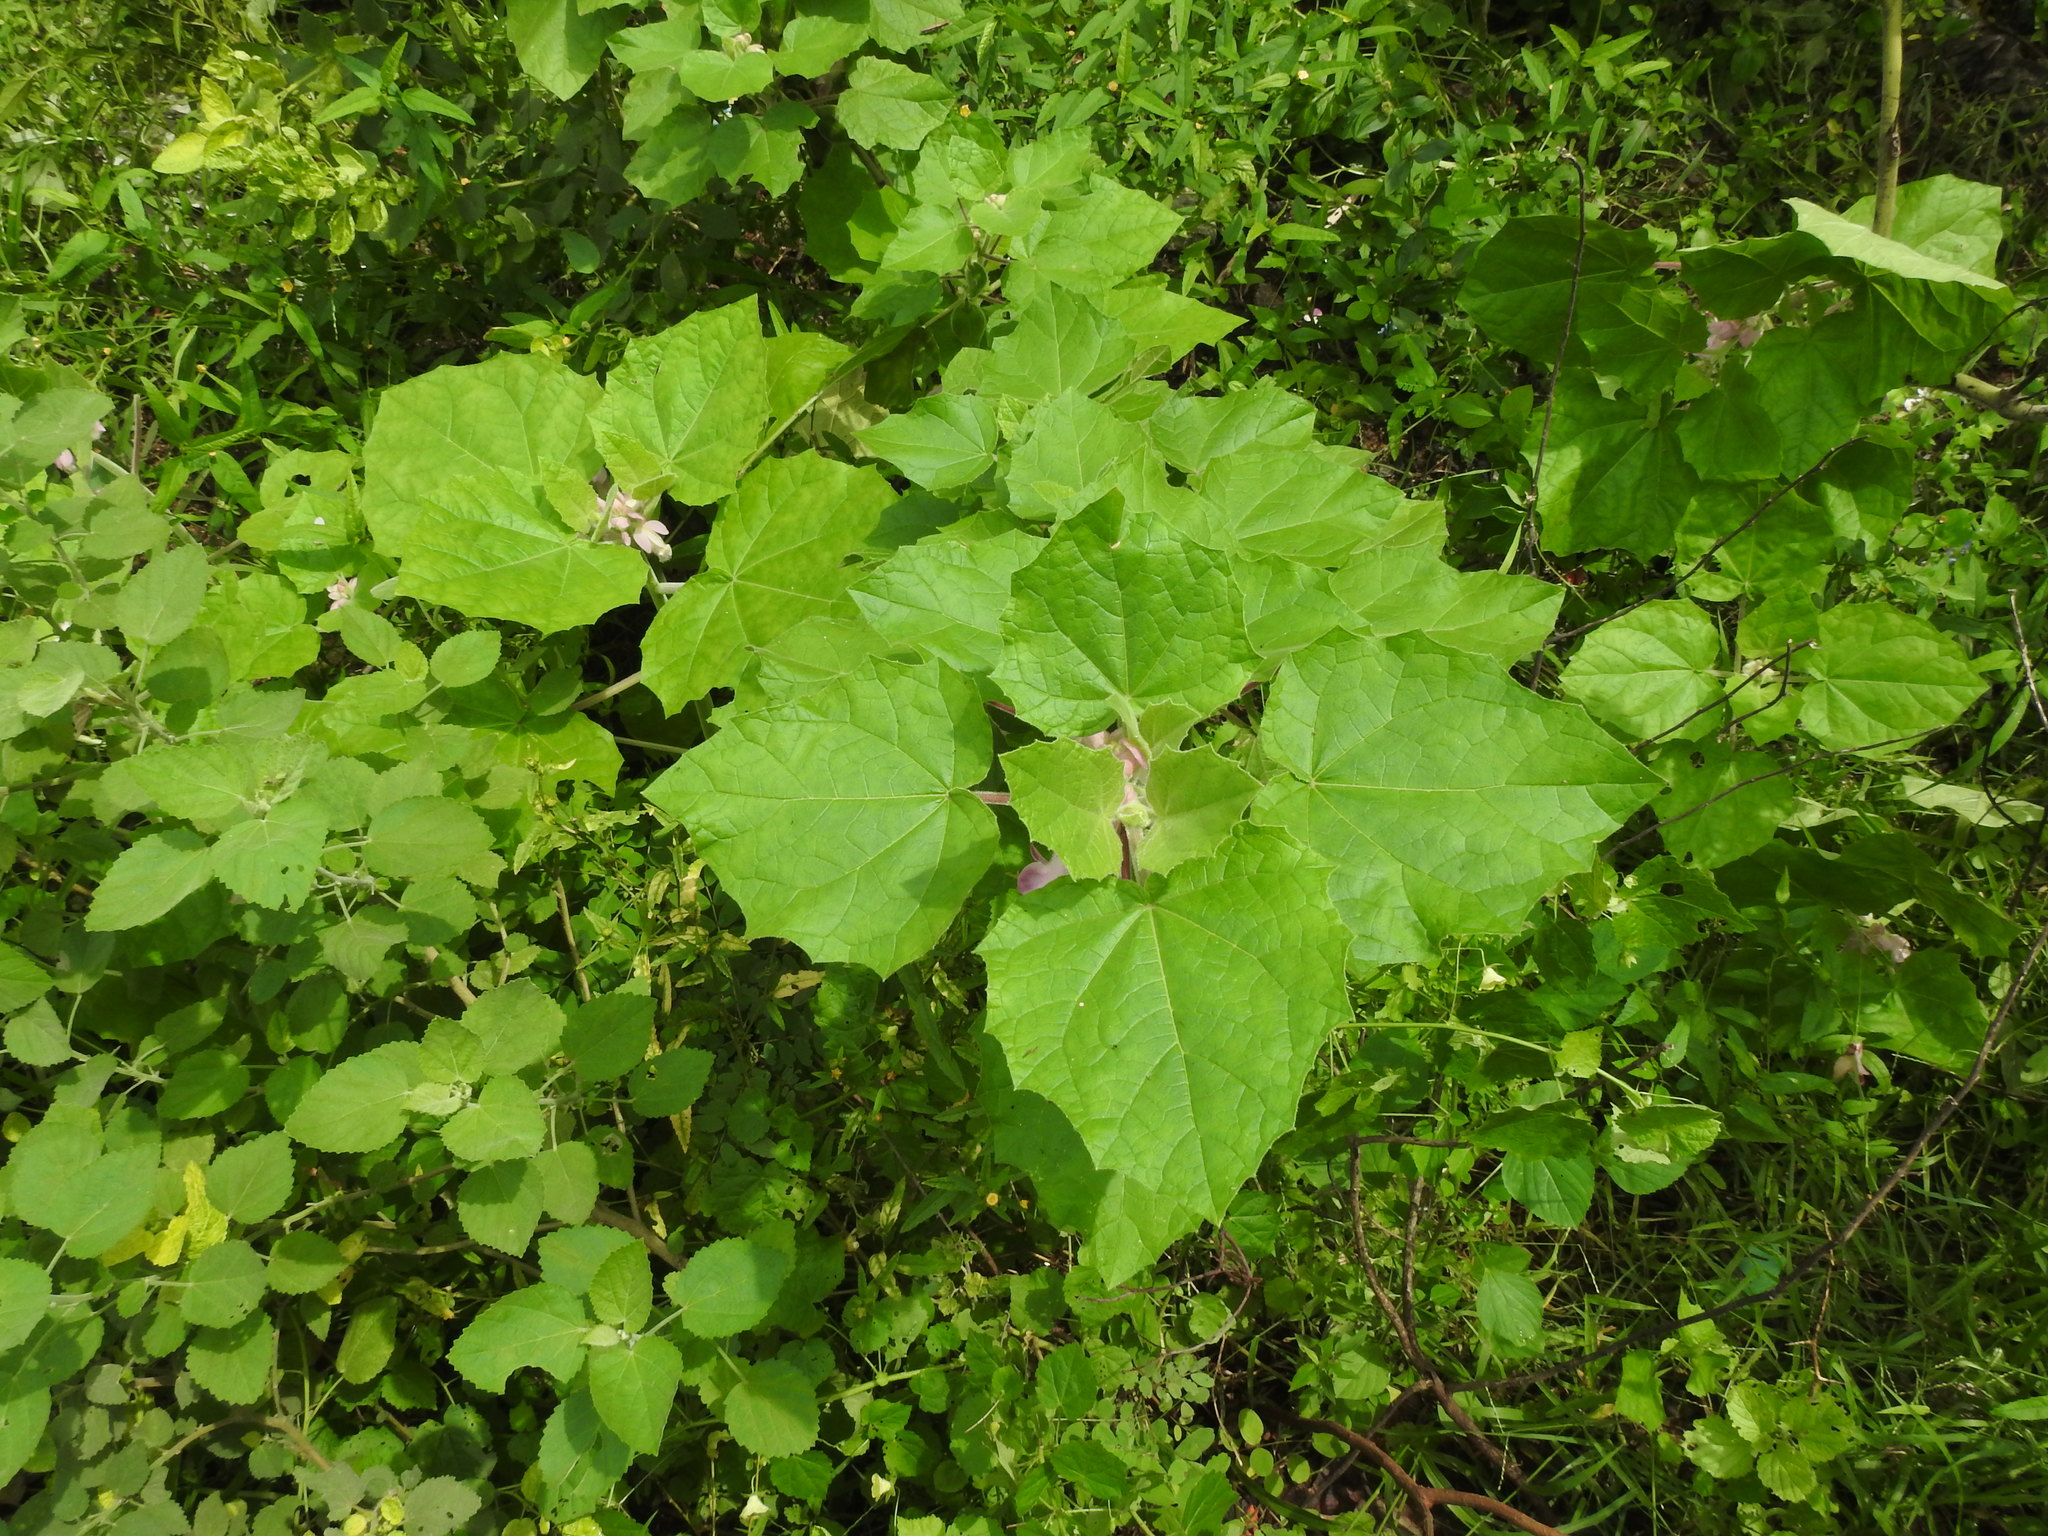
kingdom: Plantae
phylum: Tracheophyta
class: Magnoliopsida
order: Lamiales
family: Martyniaceae
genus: Martynia
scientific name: Martynia annua
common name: Tiger's-claw
